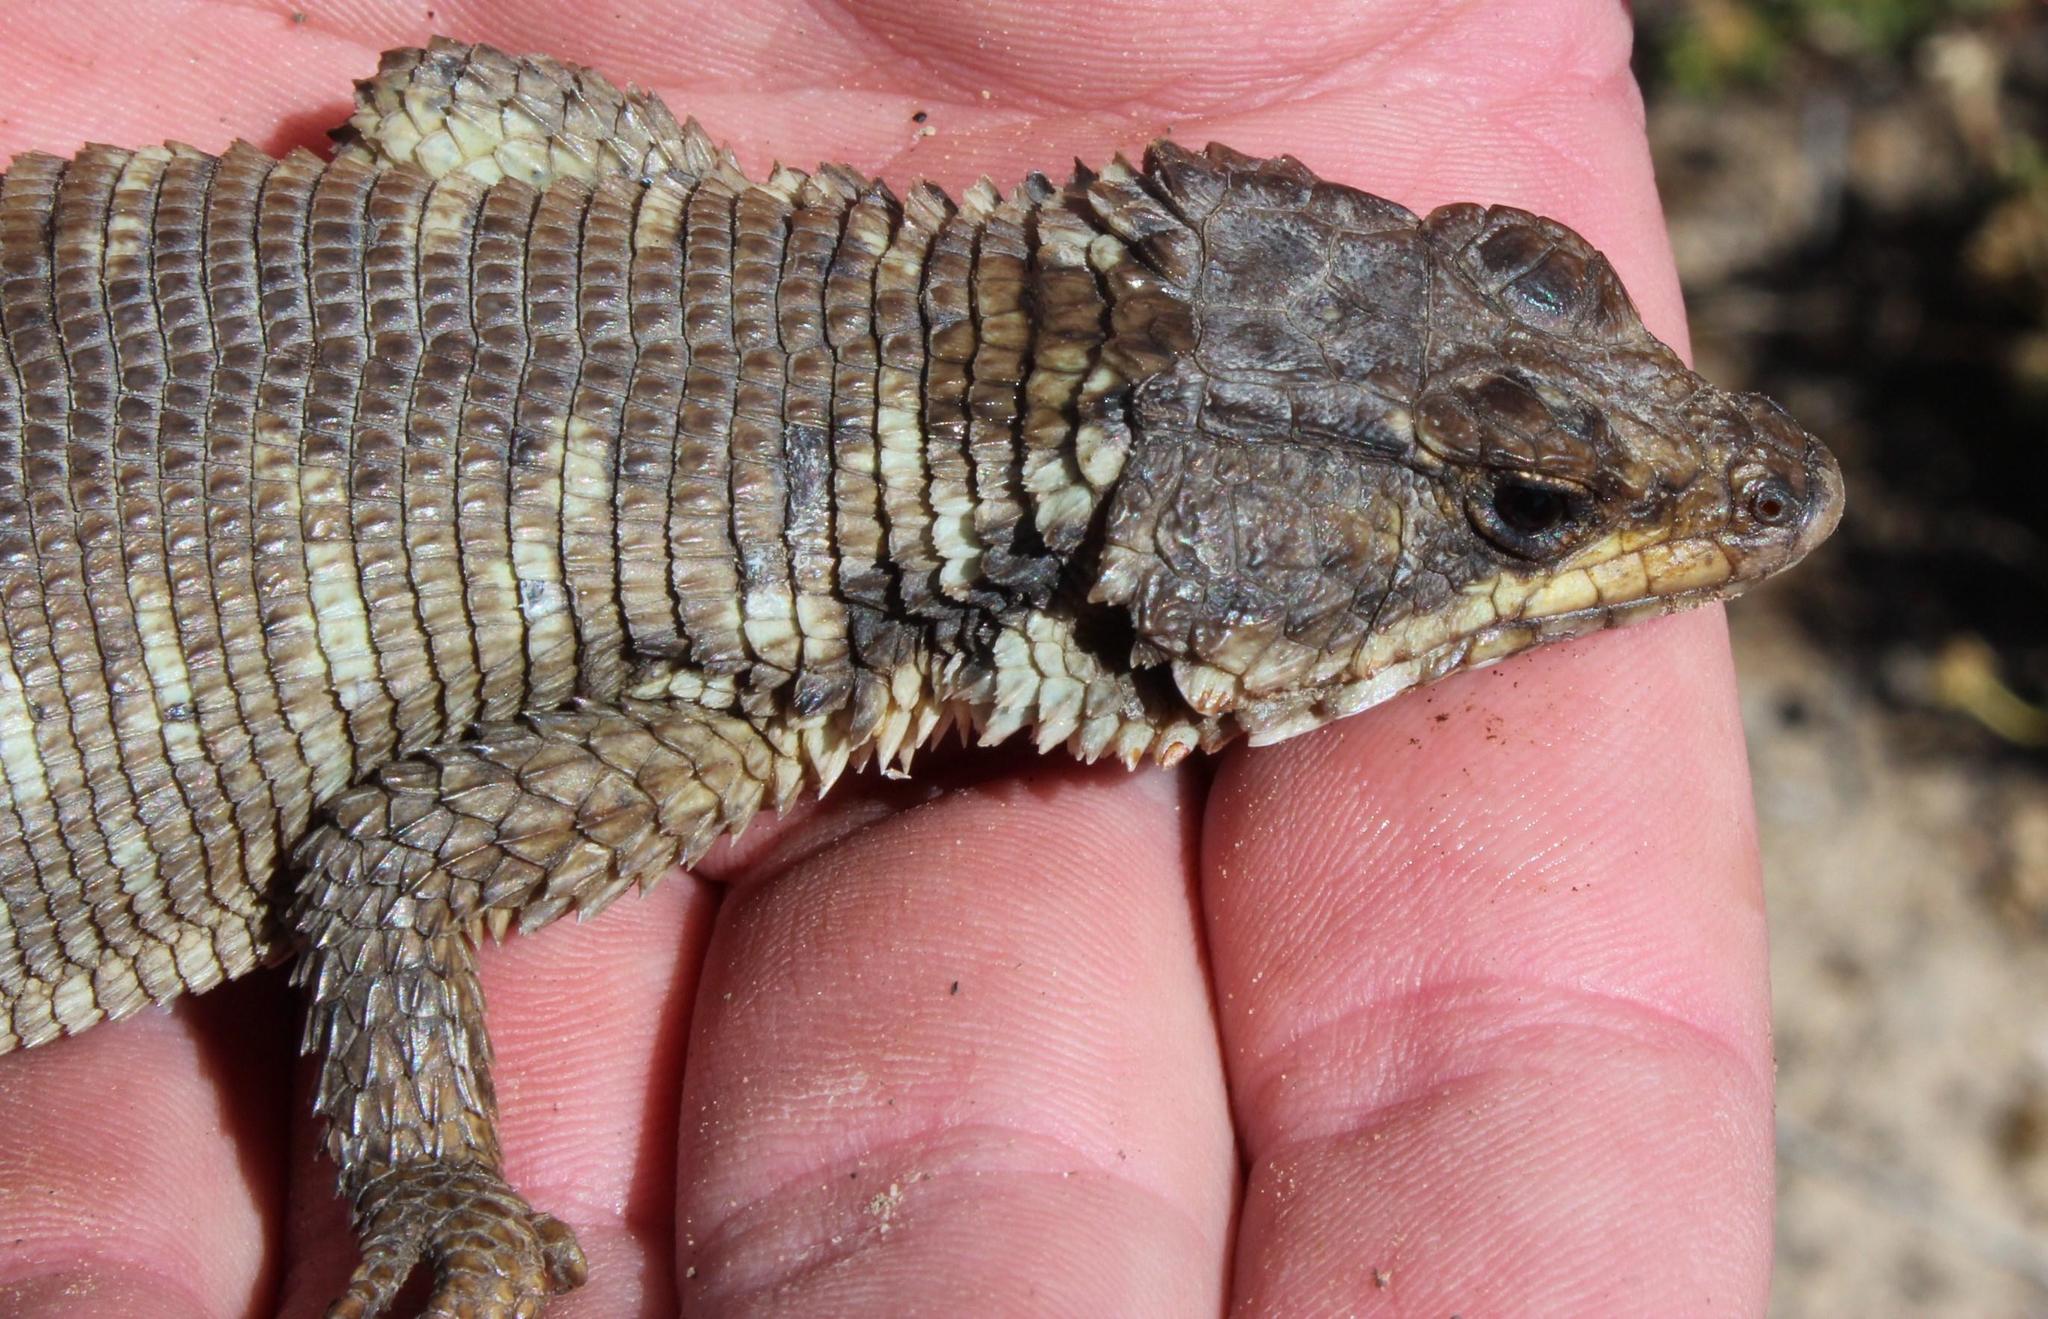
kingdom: Animalia
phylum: Chordata
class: Squamata
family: Cordylidae
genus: Karusasaurus
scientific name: Karusasaurus polyzonus
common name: Karoo girdled lizard
